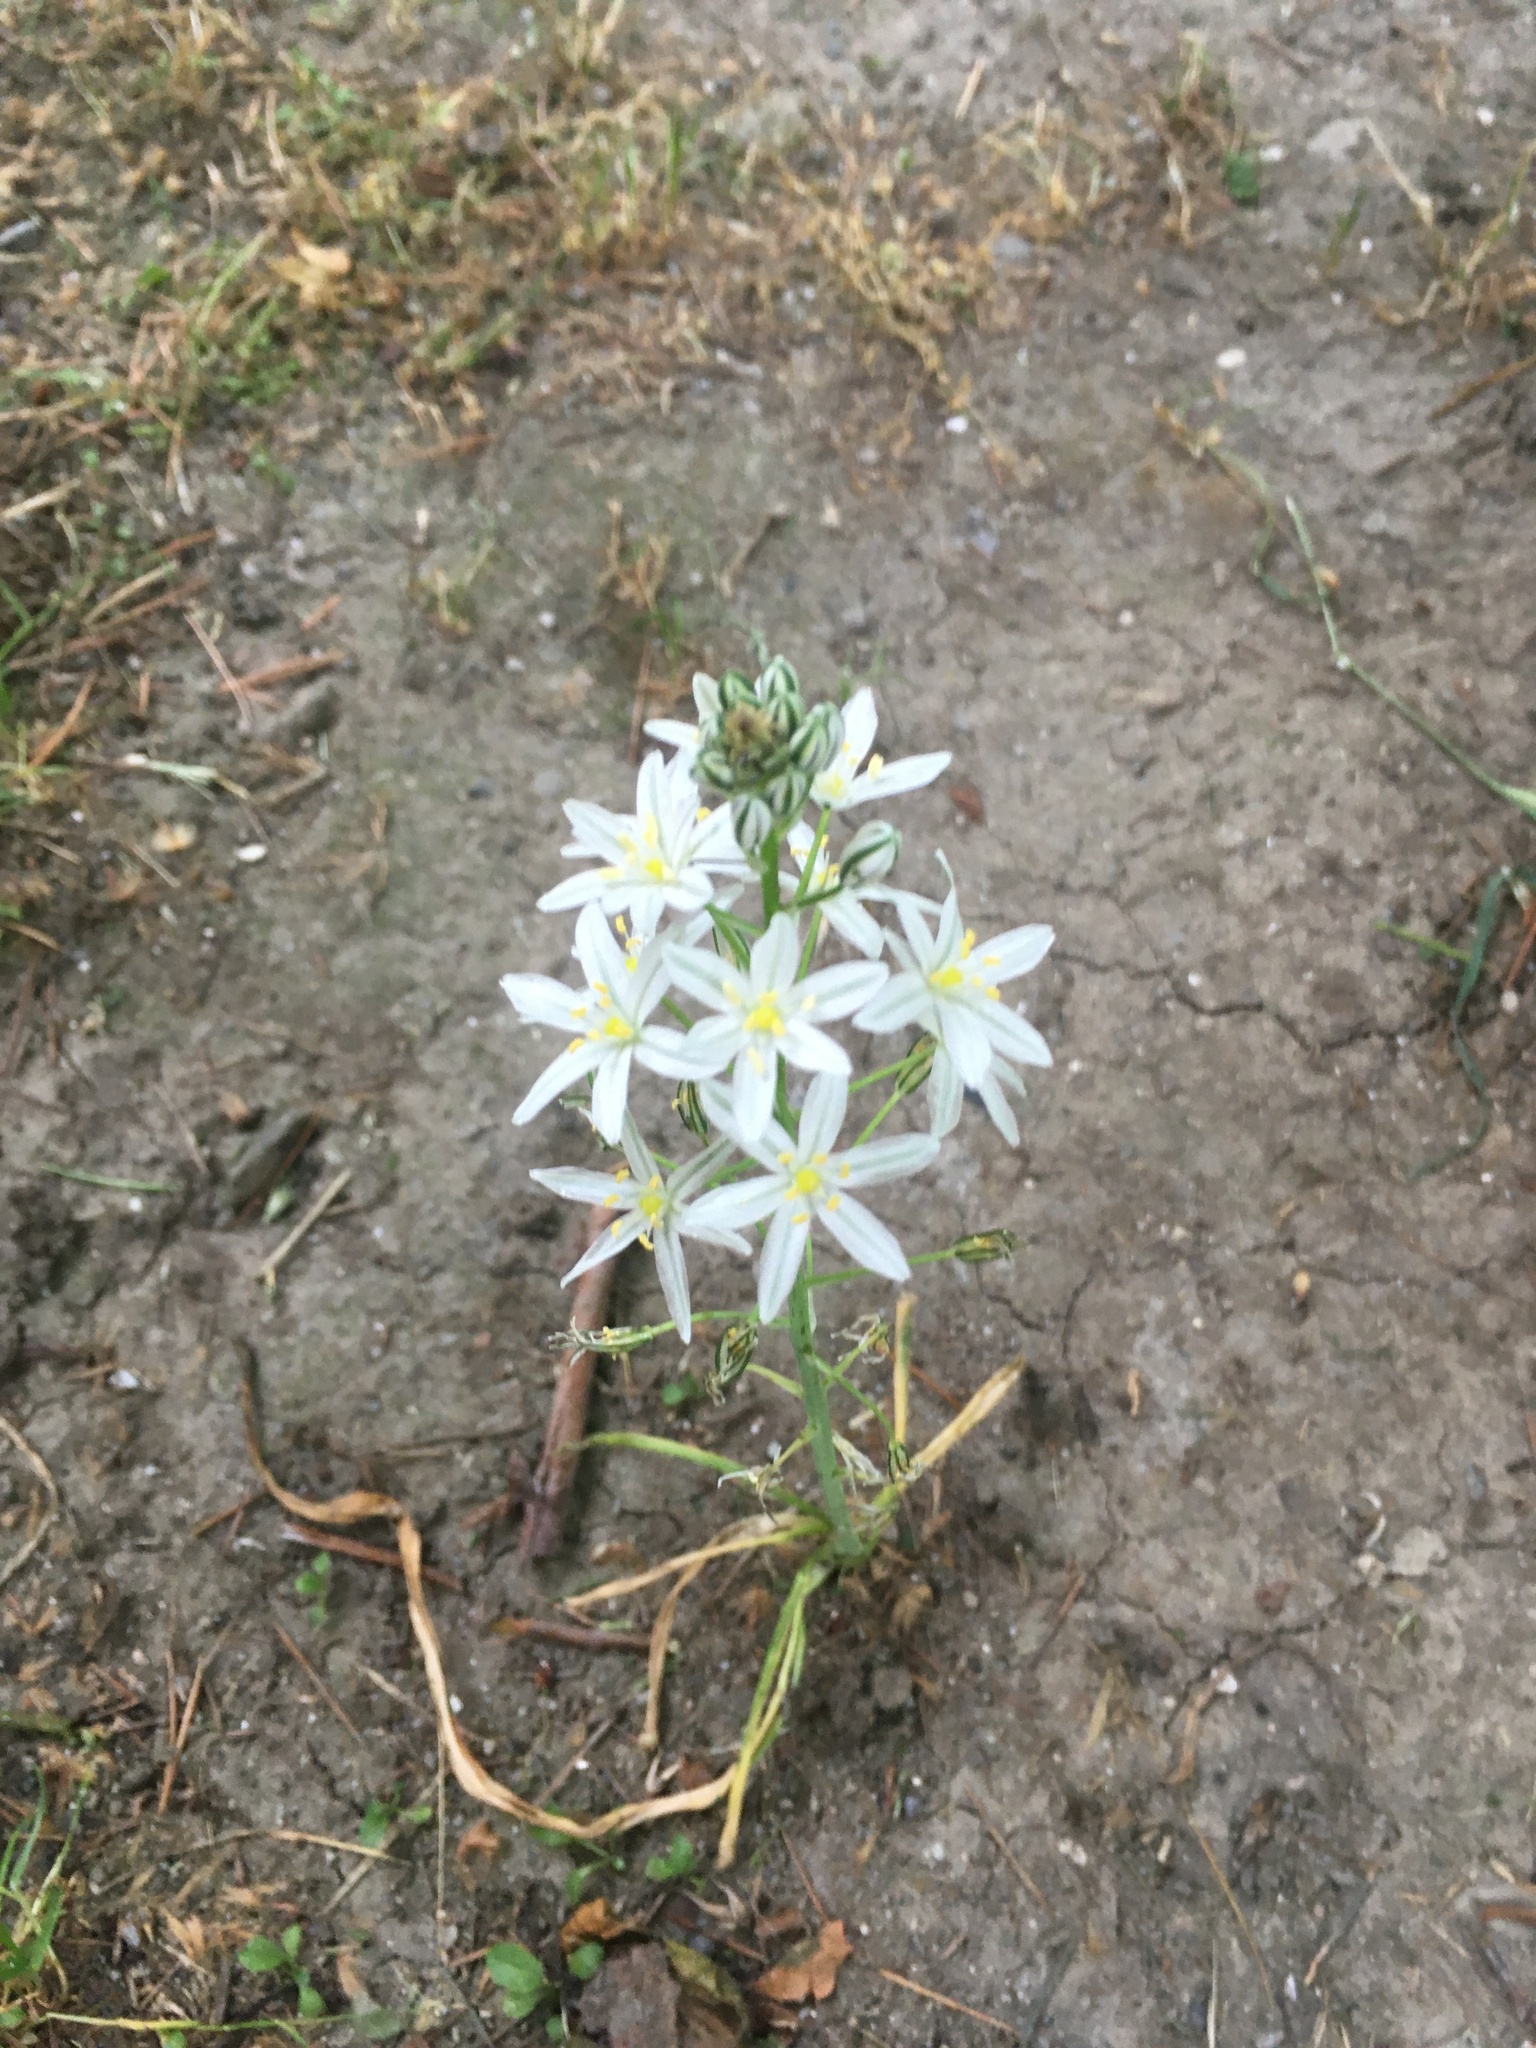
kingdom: Plantae
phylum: Tracheophyta
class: Liliopsida
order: Asparagales
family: Asparagaceae
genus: Ornithogalum
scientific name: Ornithogalum ponticum
